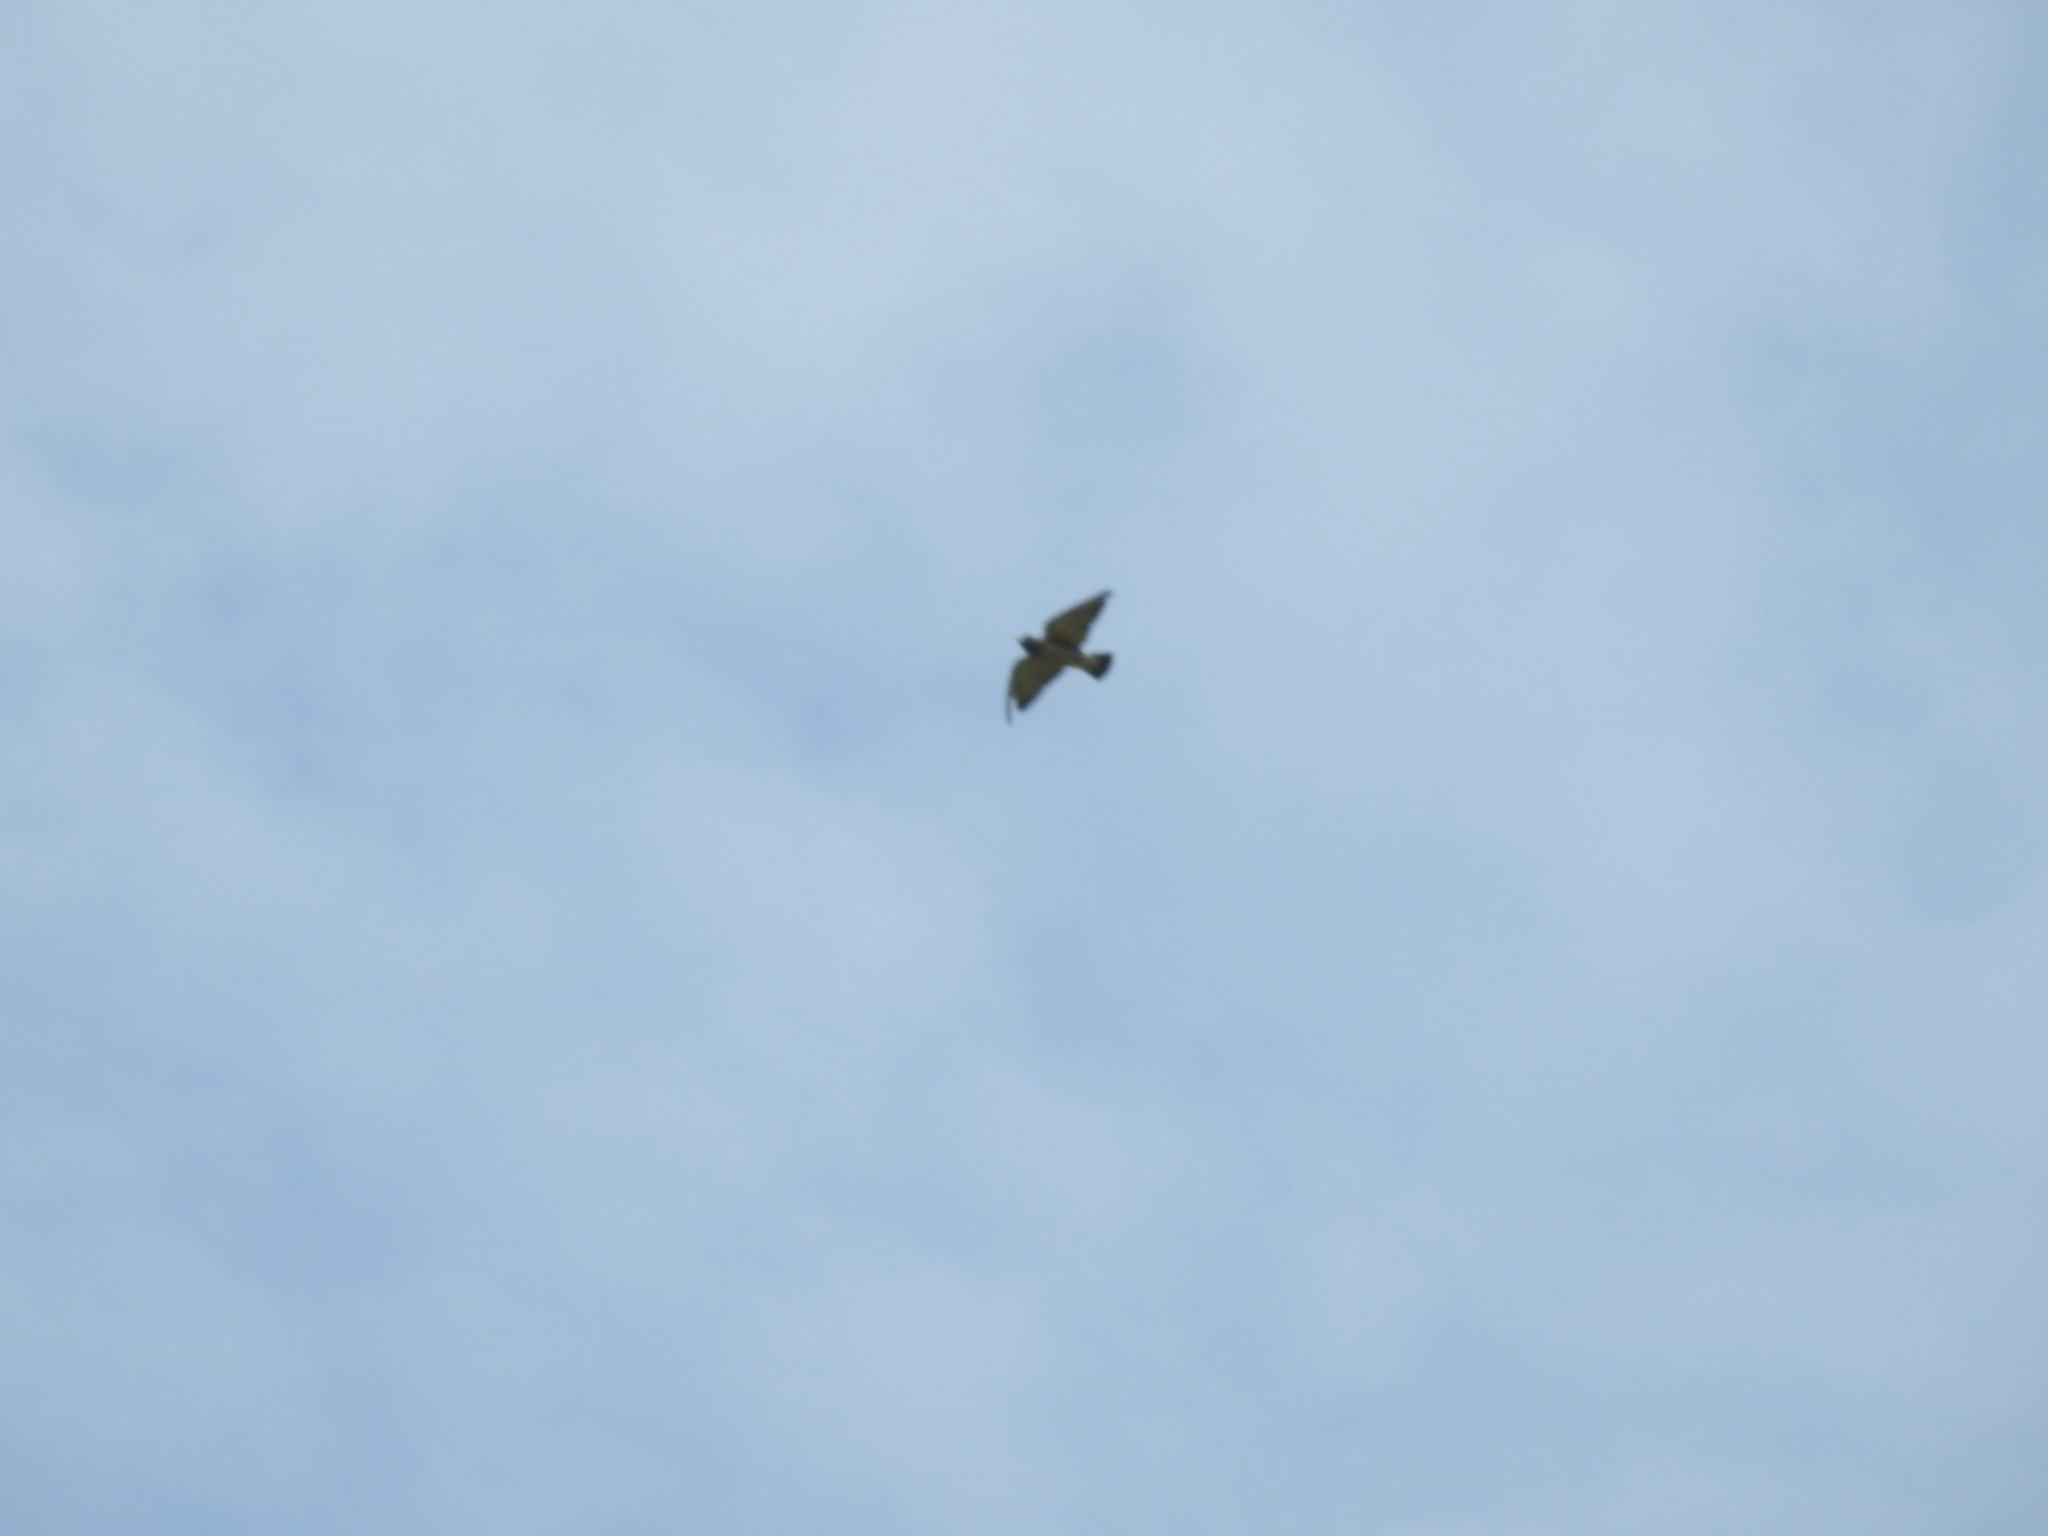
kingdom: Animalia
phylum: Chordata
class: Aves
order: Passeriformes
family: Artamidae
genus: Artamus
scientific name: Artamus fuscus
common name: Ashy woodswallow
